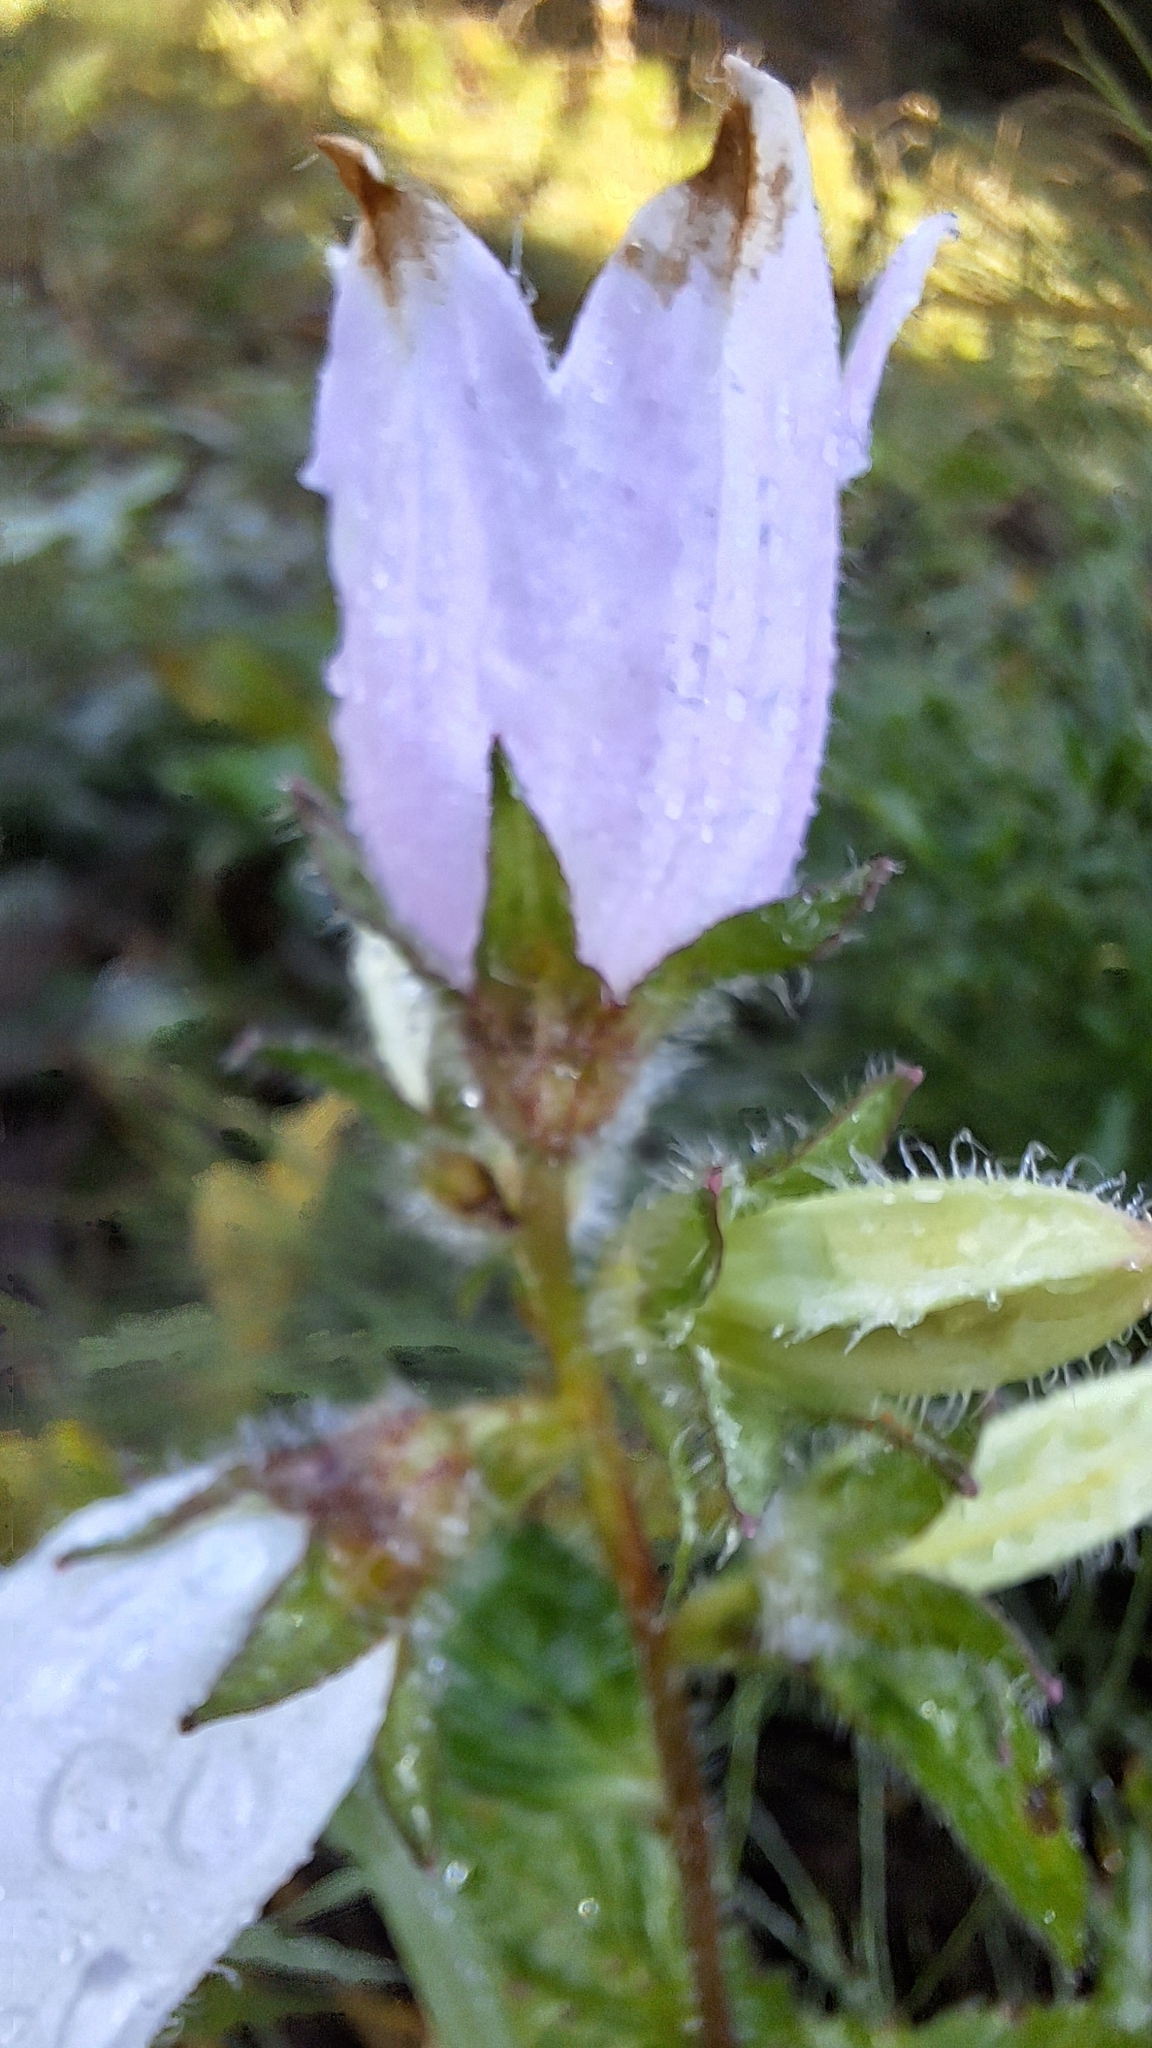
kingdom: Plantae
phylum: Tracheophyta
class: Magnoliopsida
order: Asterales
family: Campanulaceae
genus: Campanula
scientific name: Campanula trachelium
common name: Nettle-leaved bellflower
